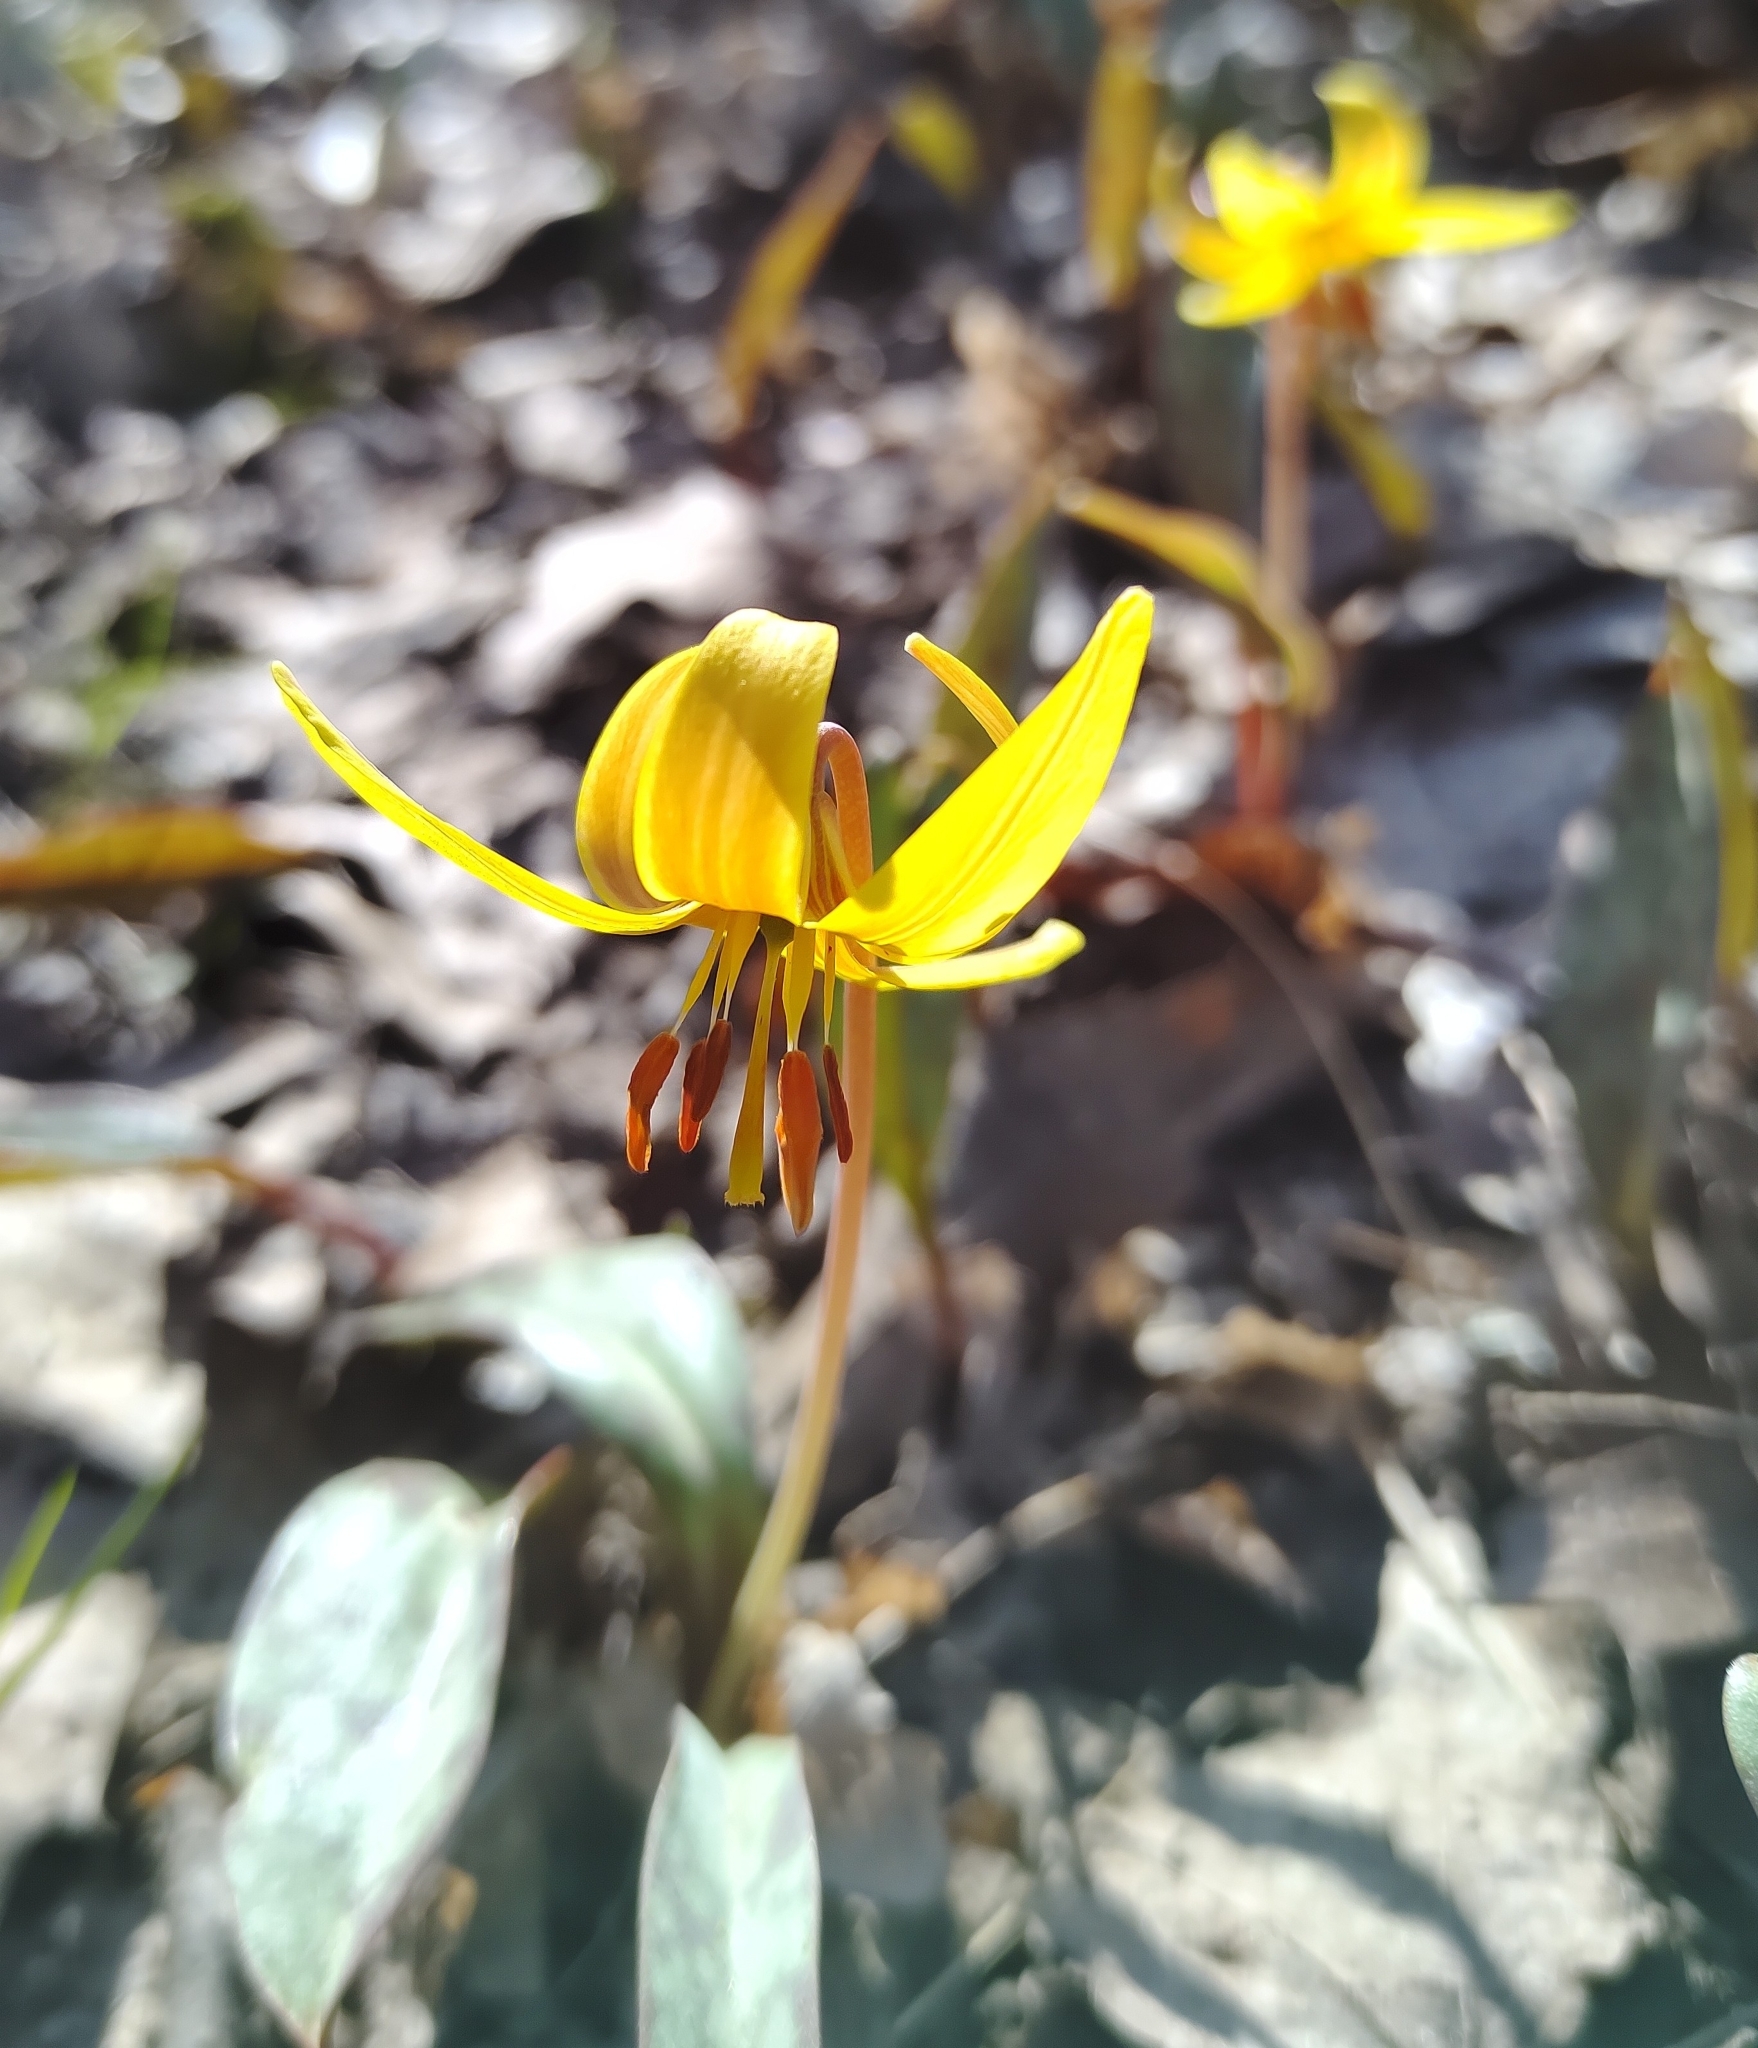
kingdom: Plantae
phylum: Tracheophyta
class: Liliopsida
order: Liliales
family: Liliaceae
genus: Erythronium
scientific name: Erythronium americanum
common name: Yellow adder's-tongue
